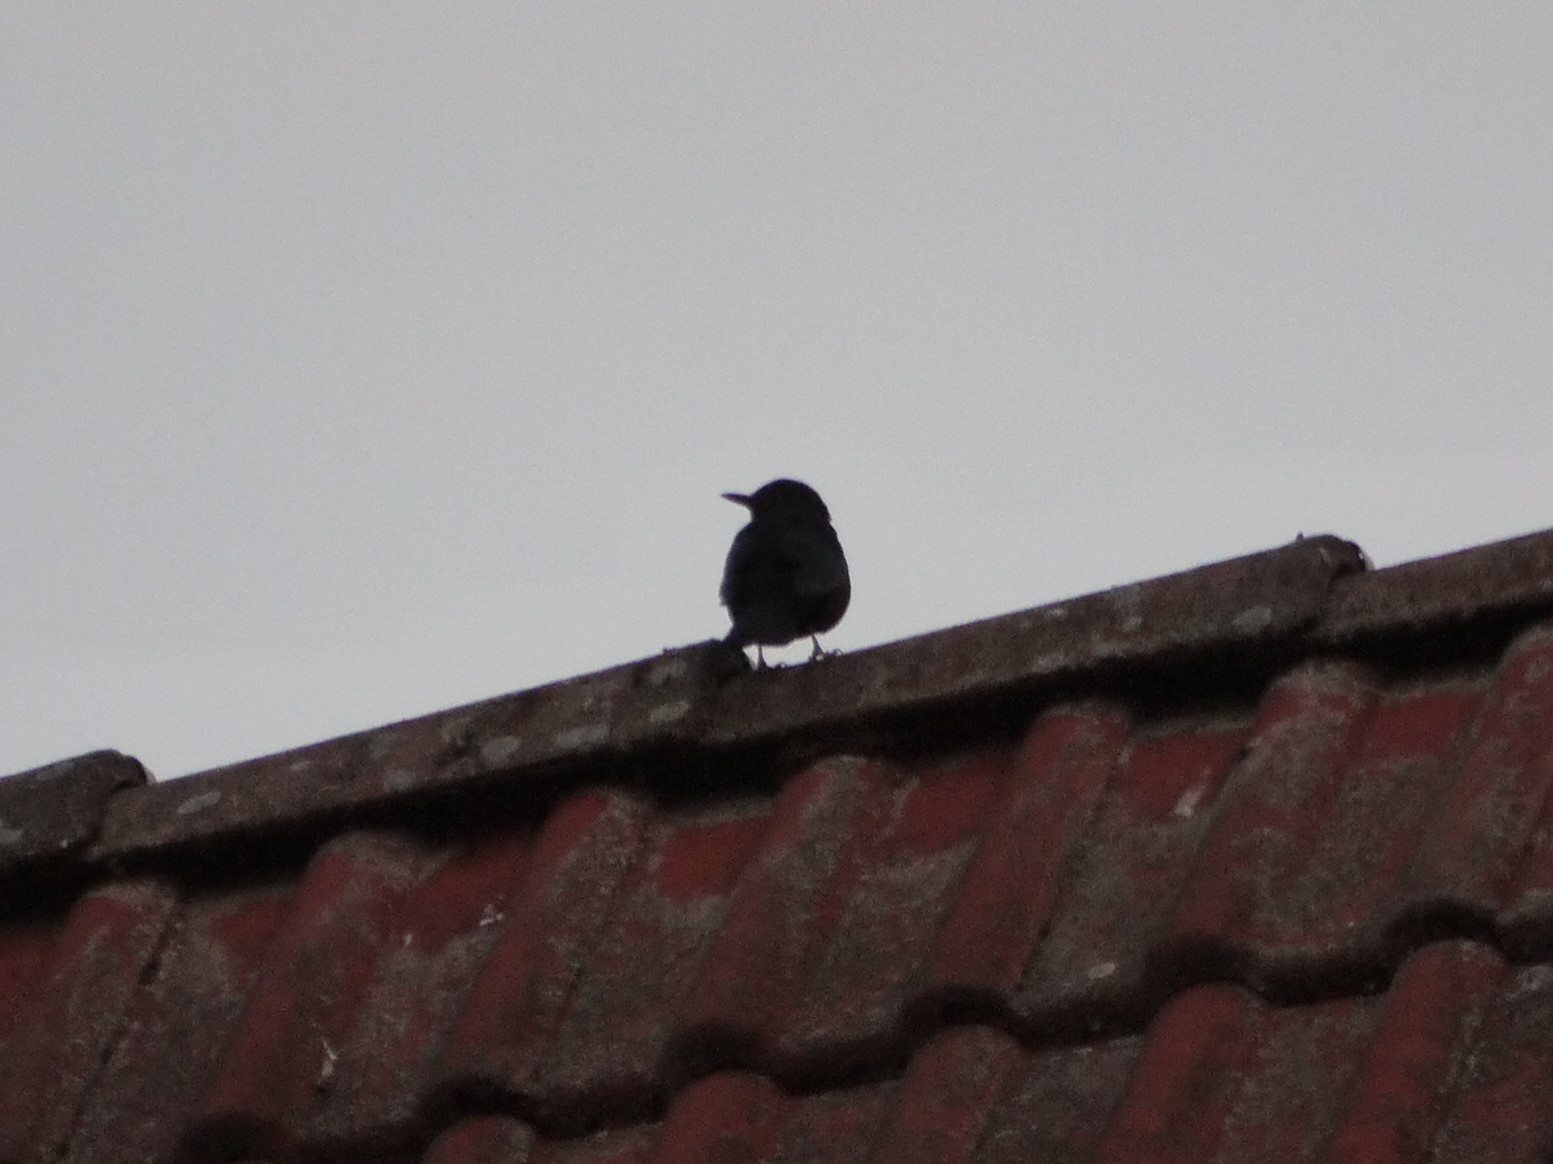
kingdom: Animalia
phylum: Chordata
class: Aves
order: Passeriformes
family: Turdidae
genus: Turdus
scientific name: Turdus merula
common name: Common blackbird
